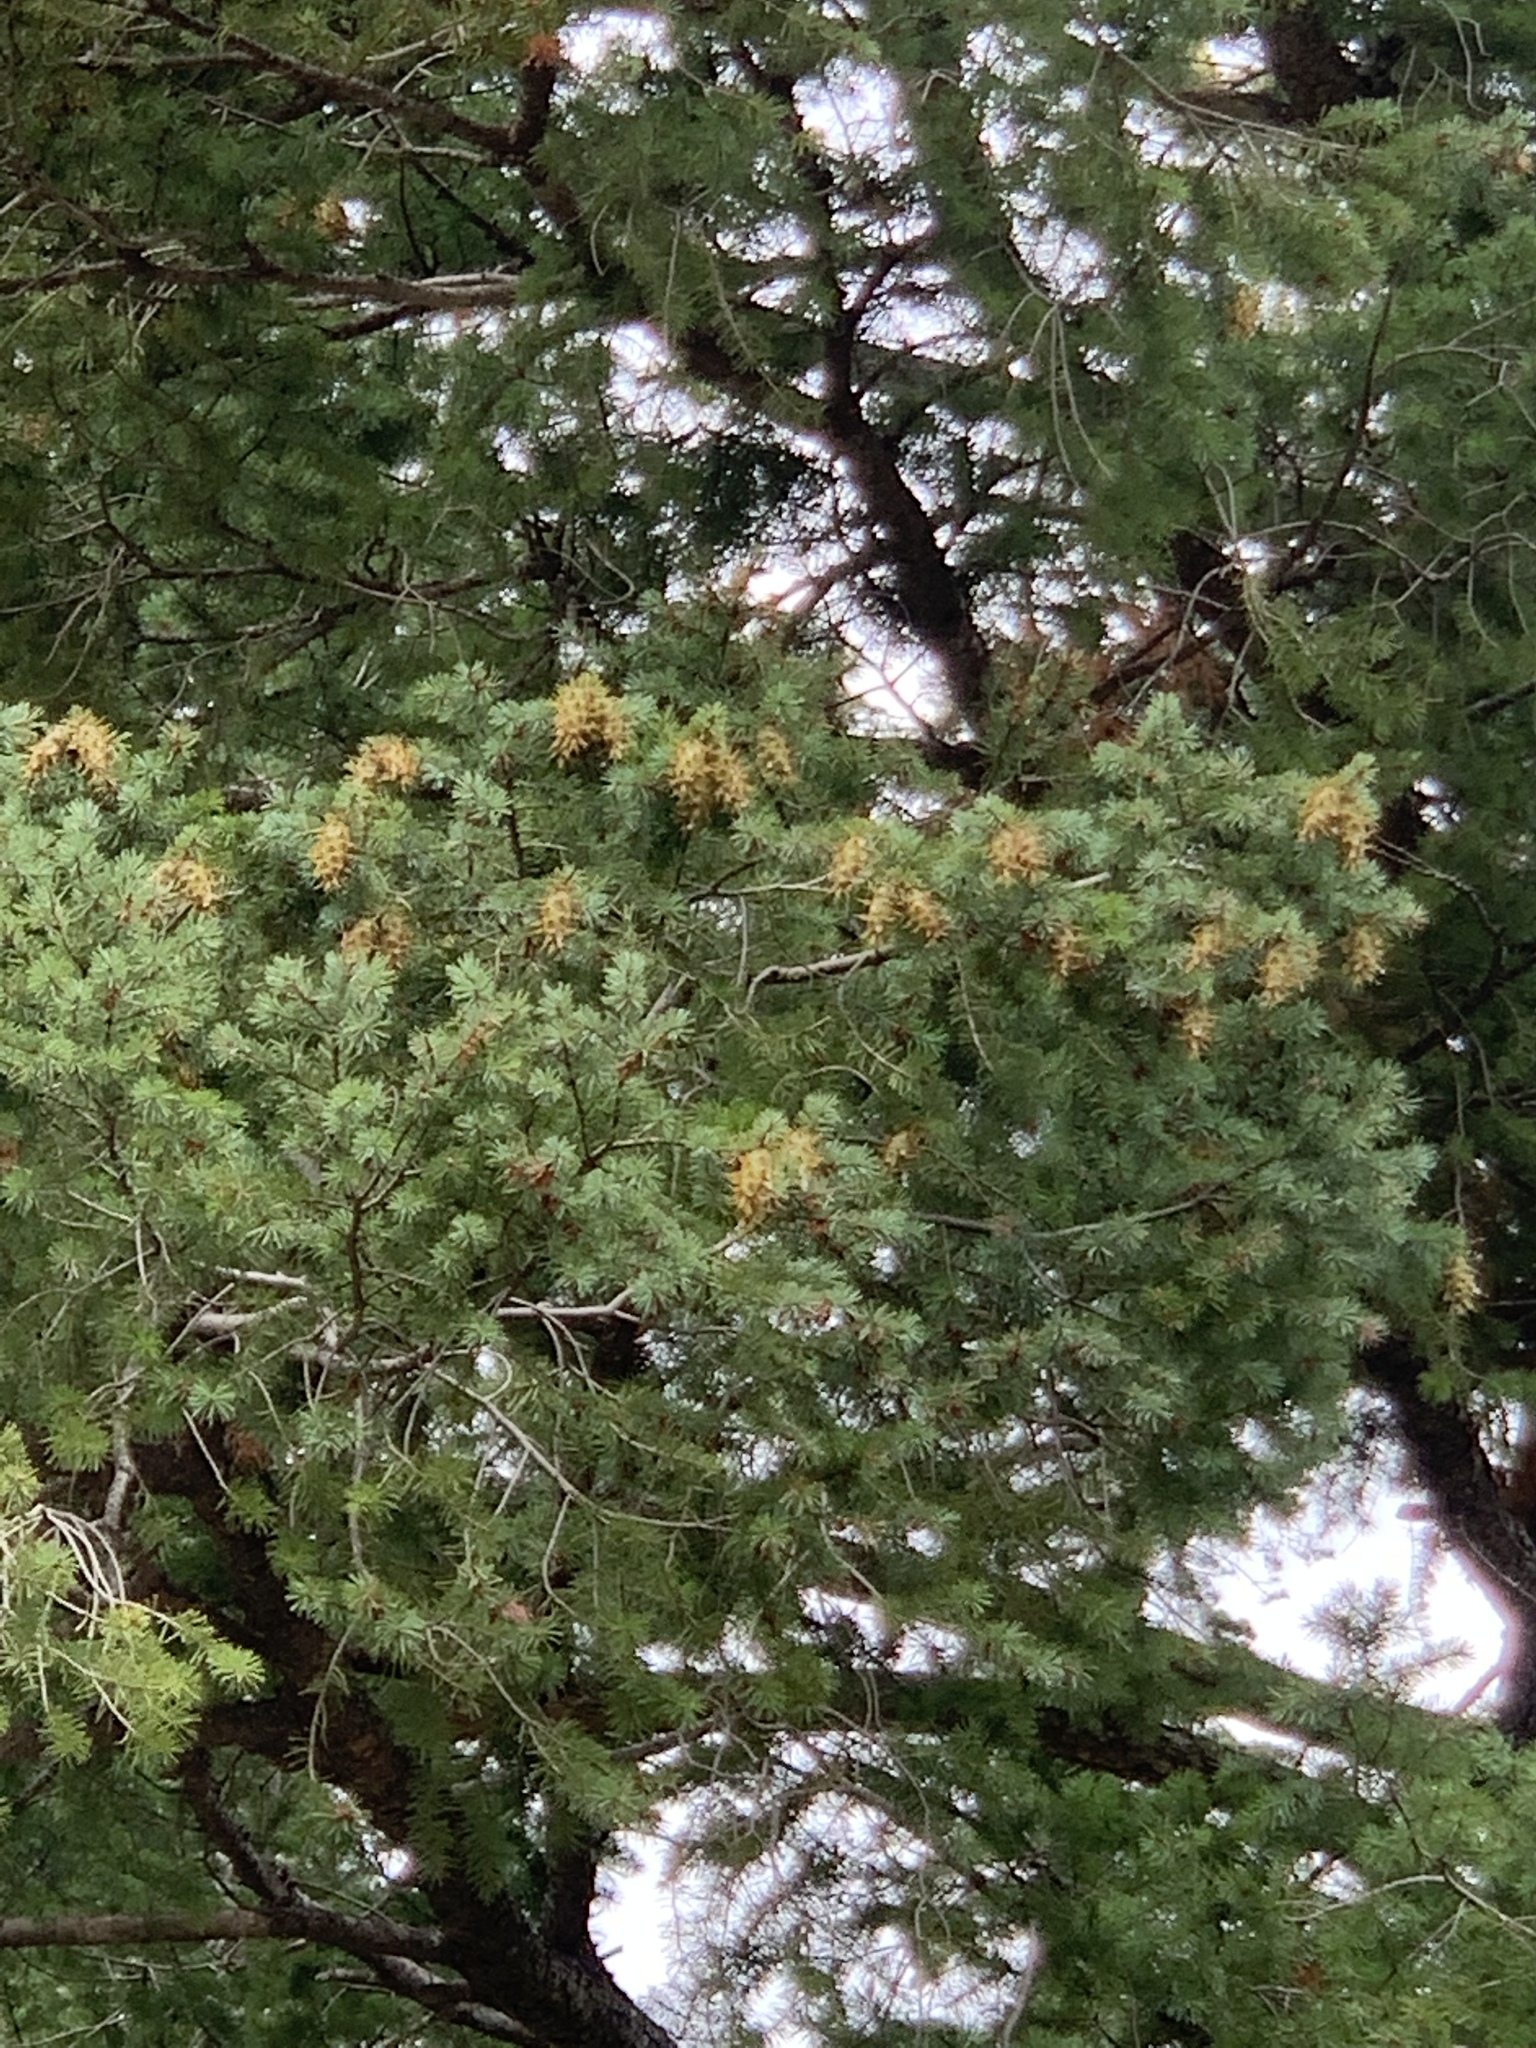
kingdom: Plantae
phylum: Tracheophyta
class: Pinopsida
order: Pinales
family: Pinaceae
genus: Pseudotsuga
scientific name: Pseudotsuga menziesii
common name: Douglas fir
